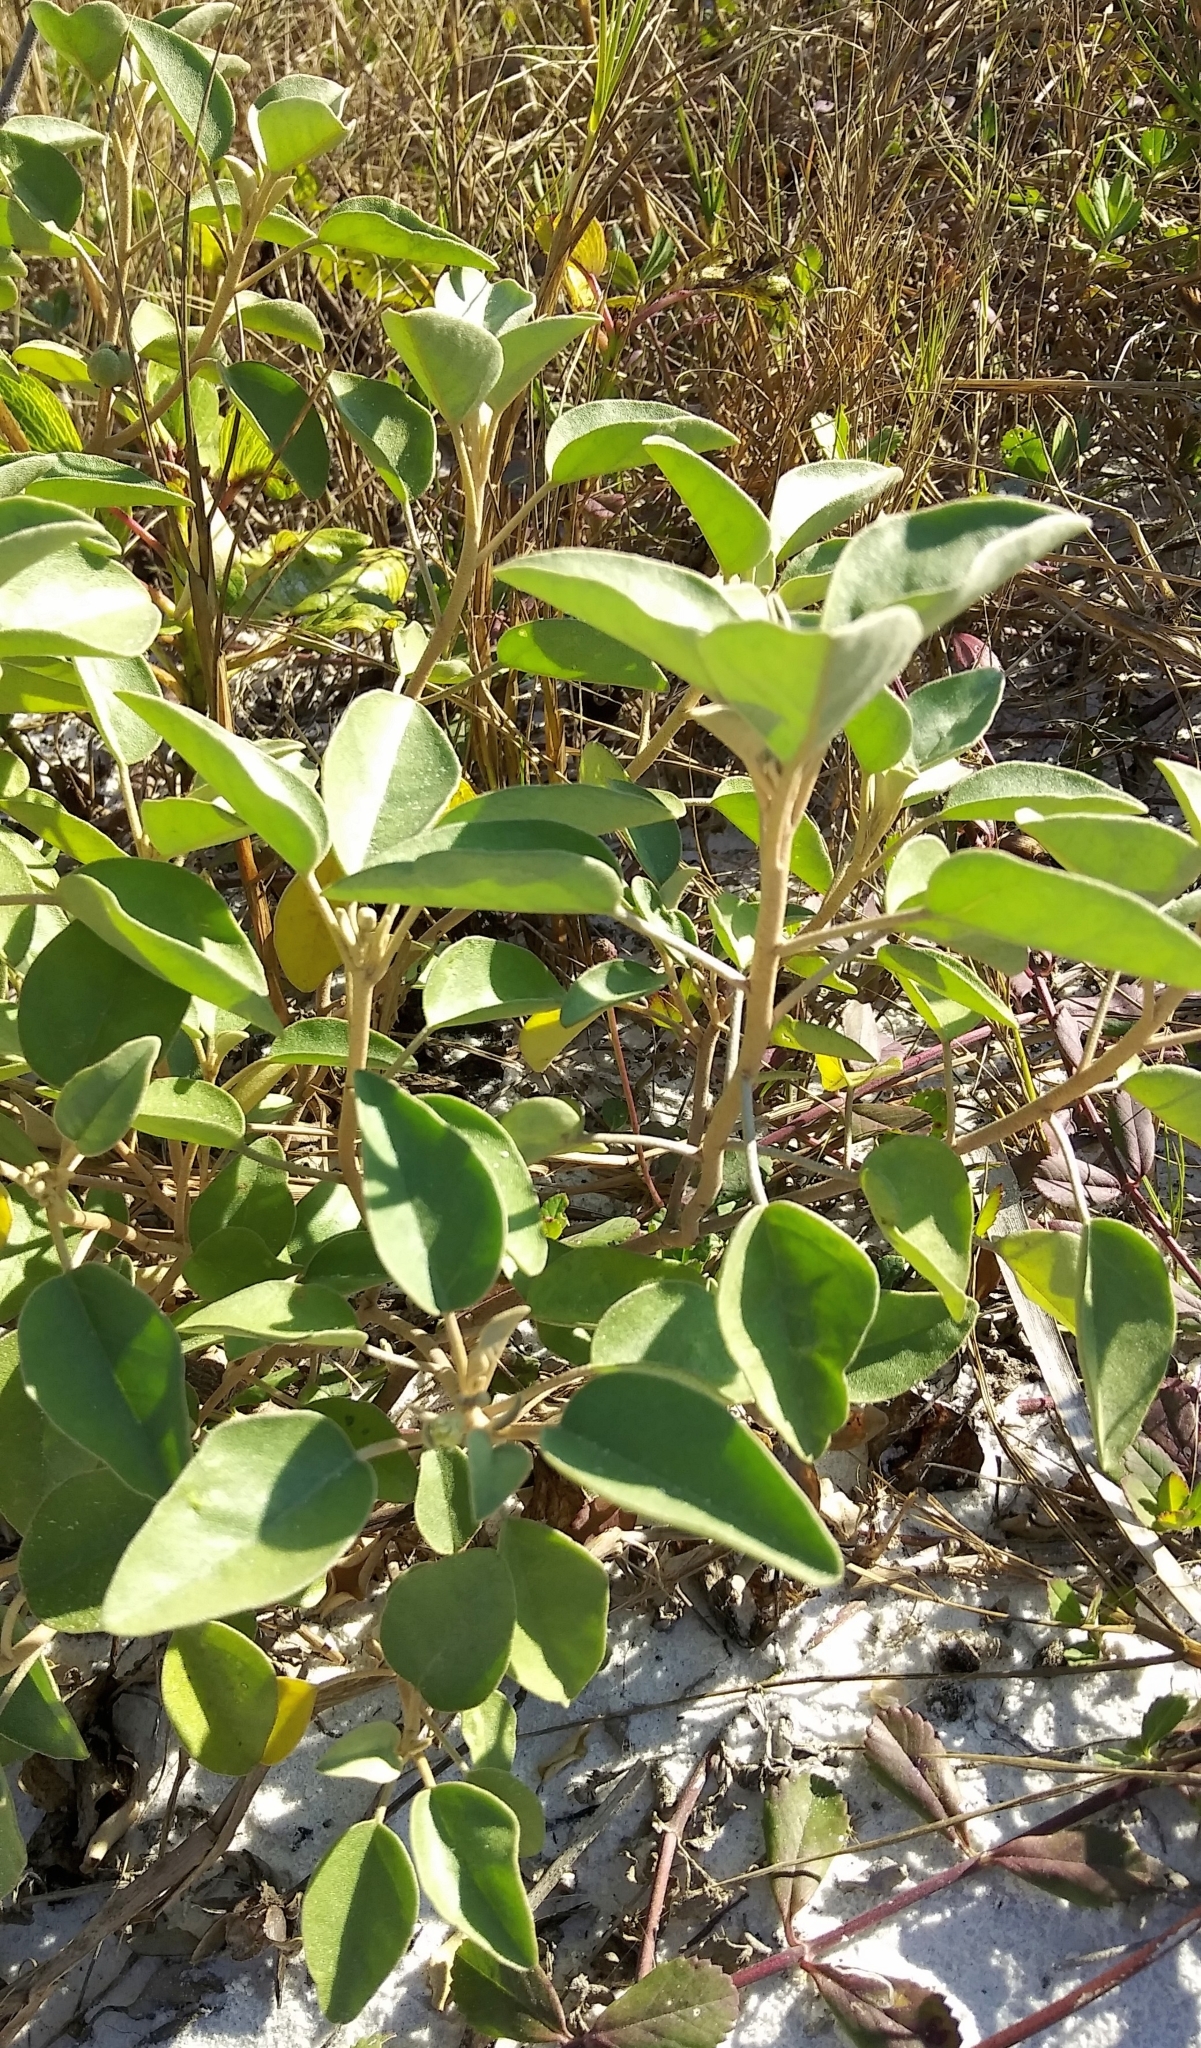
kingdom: Plantae
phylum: Tracheophyta
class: Magnoliopsida
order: Malpighiales
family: Euphorbiaceae
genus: Croton
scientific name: Croton punctatus
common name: Beach-tea
